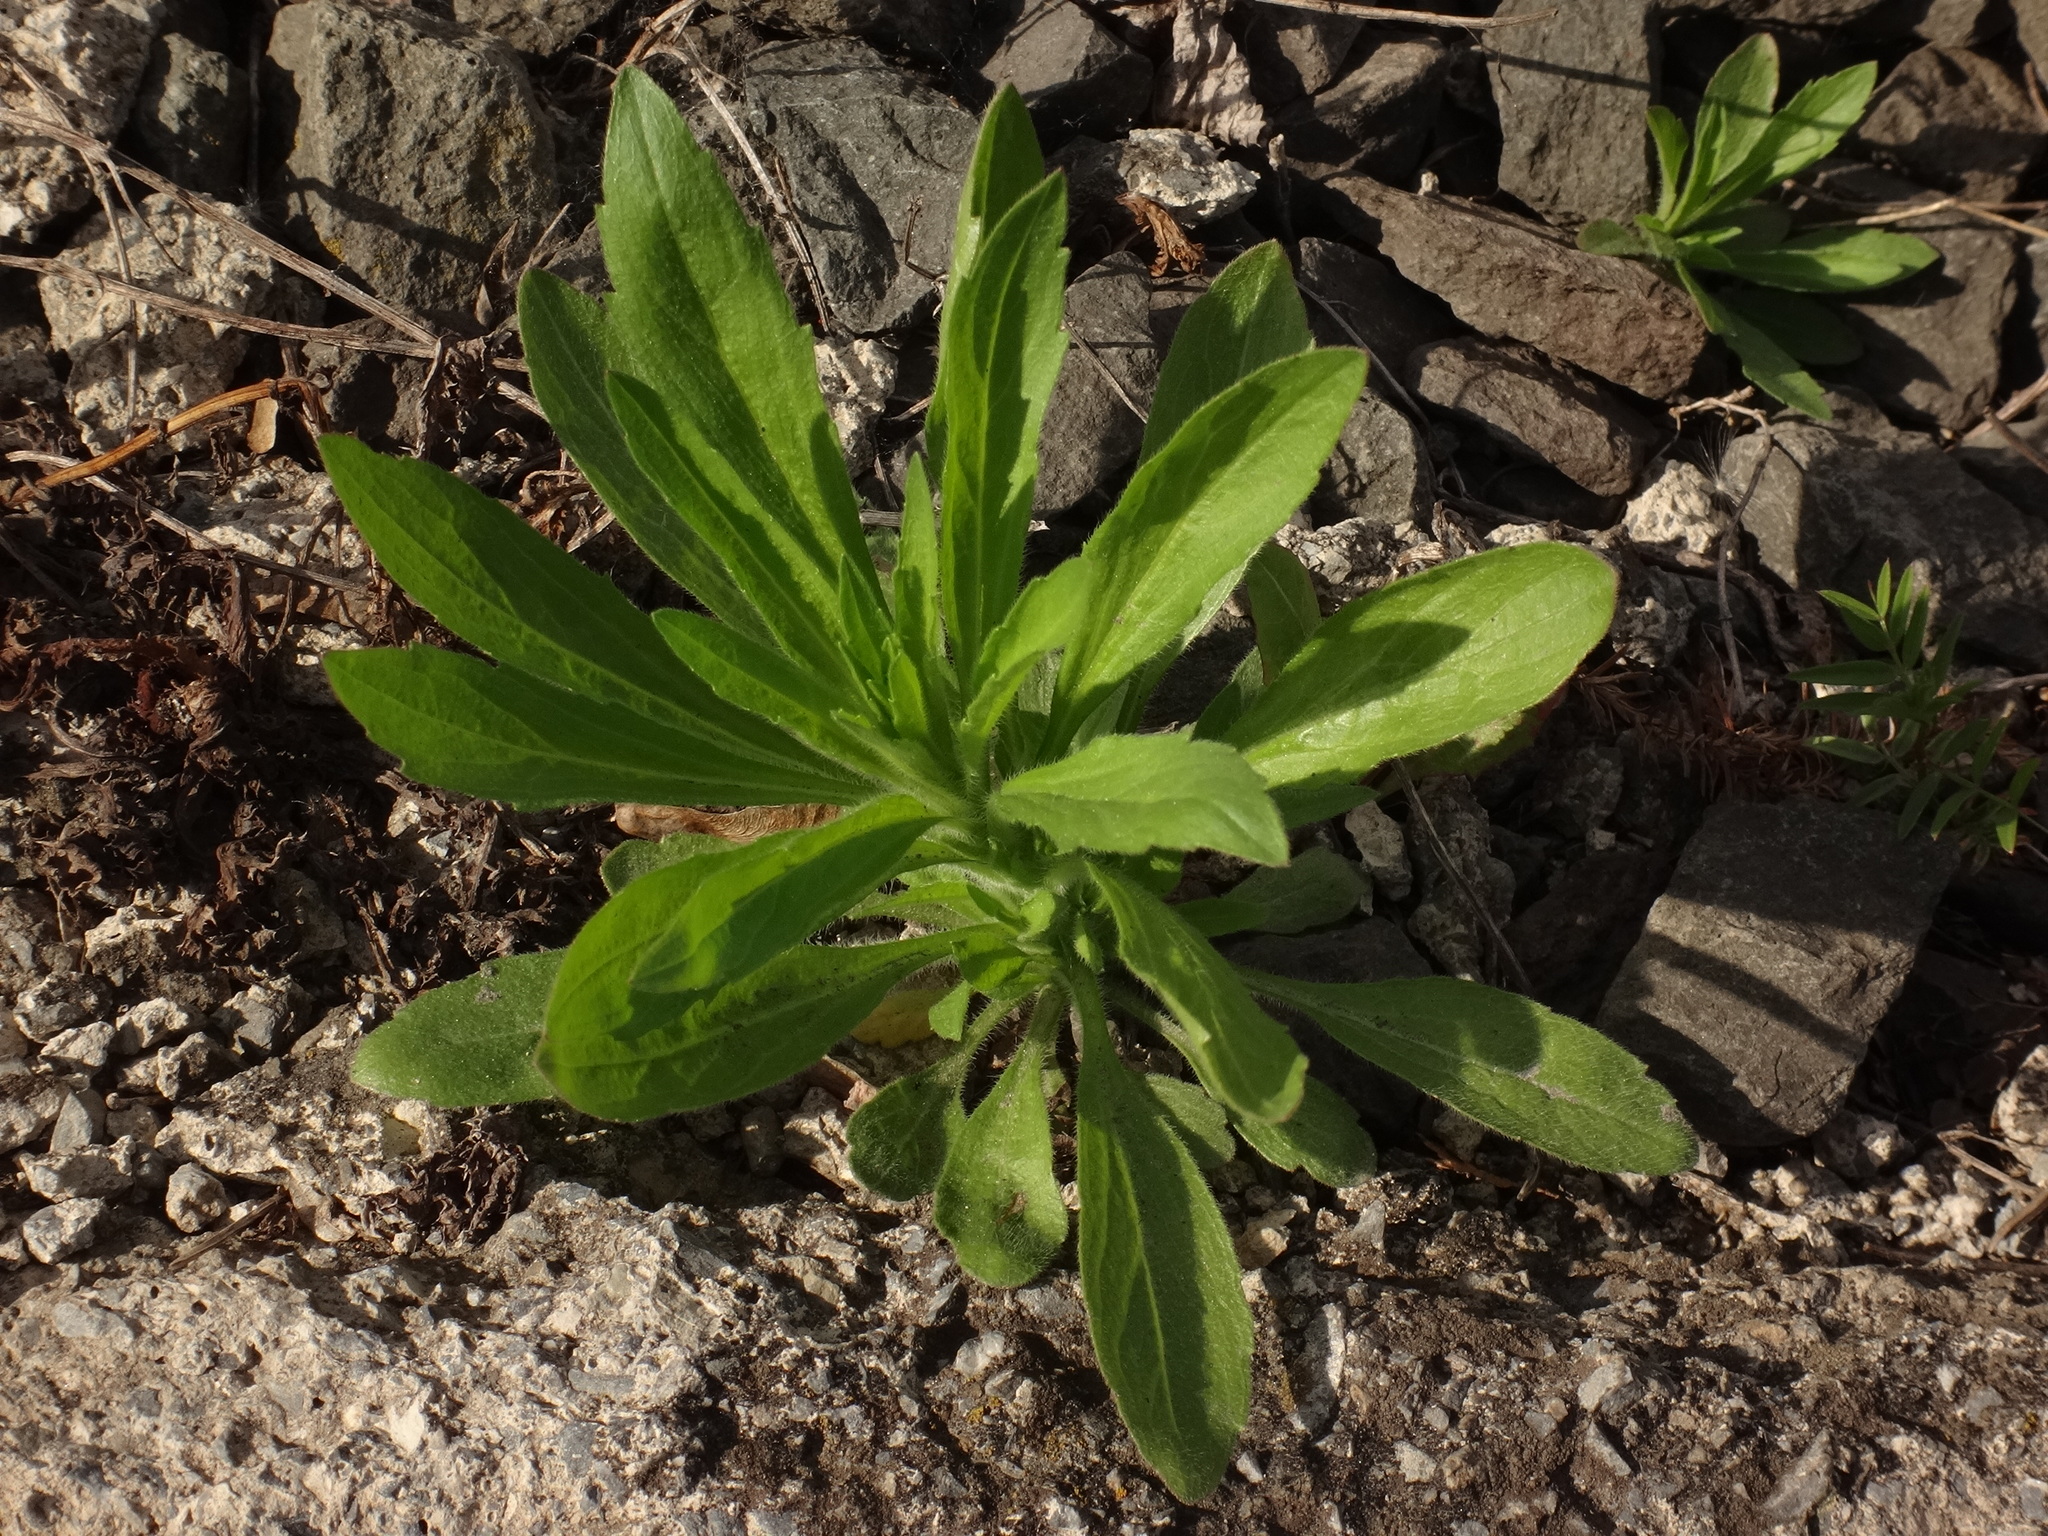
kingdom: Plantae
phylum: Tracheophyta
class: Magnoliopsida
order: Asterales
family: Asteraceae
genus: Erigeron
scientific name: Erigeron canadensis
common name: Canadian fleabane
